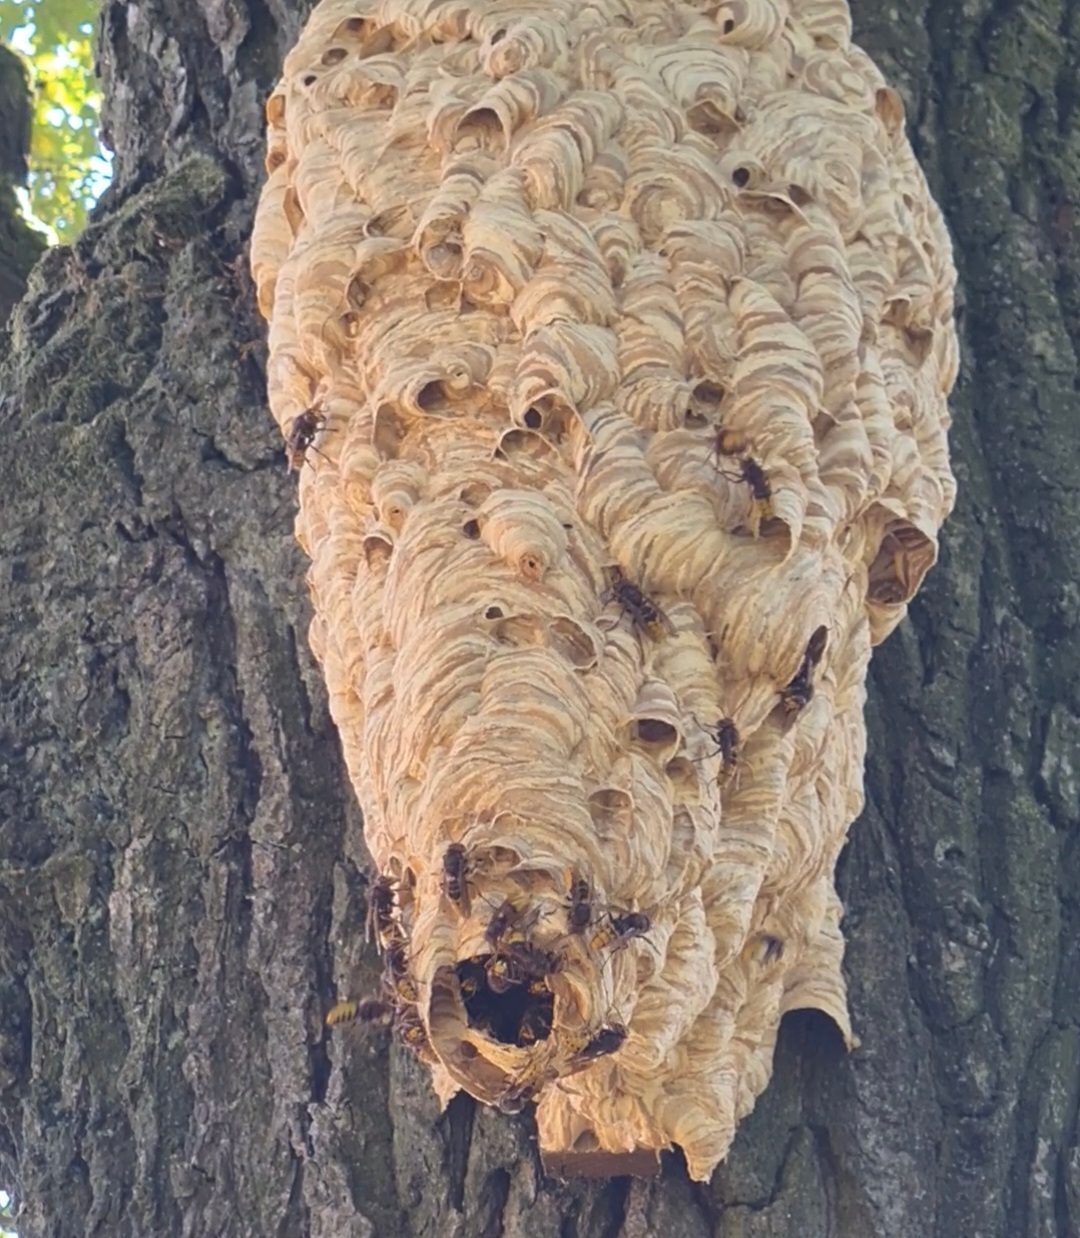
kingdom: Animalia
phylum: Arthropoda
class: Insecta
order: Hymenoptera
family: Vespidae
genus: Vespa
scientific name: Vespa crabro
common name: Hornet
